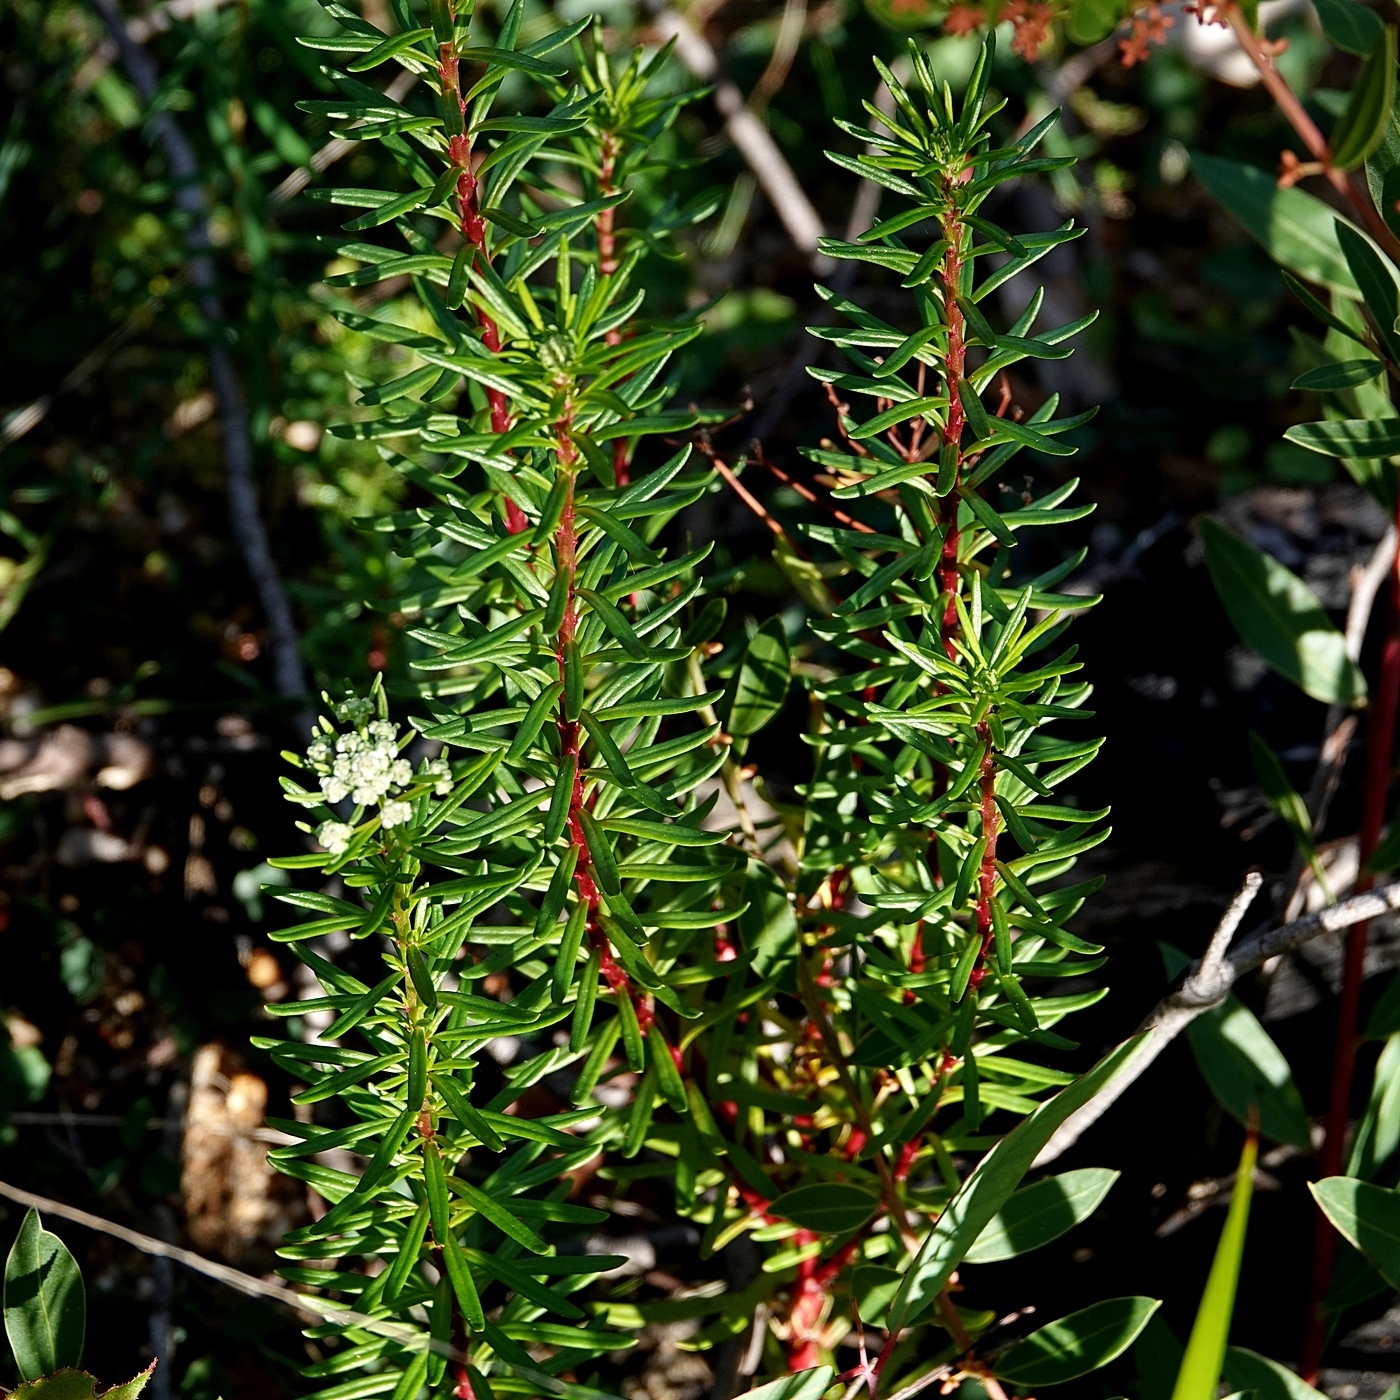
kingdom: Plantae
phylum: Tracheophyta
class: Magnoliopsida
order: Malpighiales
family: Phyllanthaceae
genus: Poranthera
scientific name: Poranthera corymbosa
